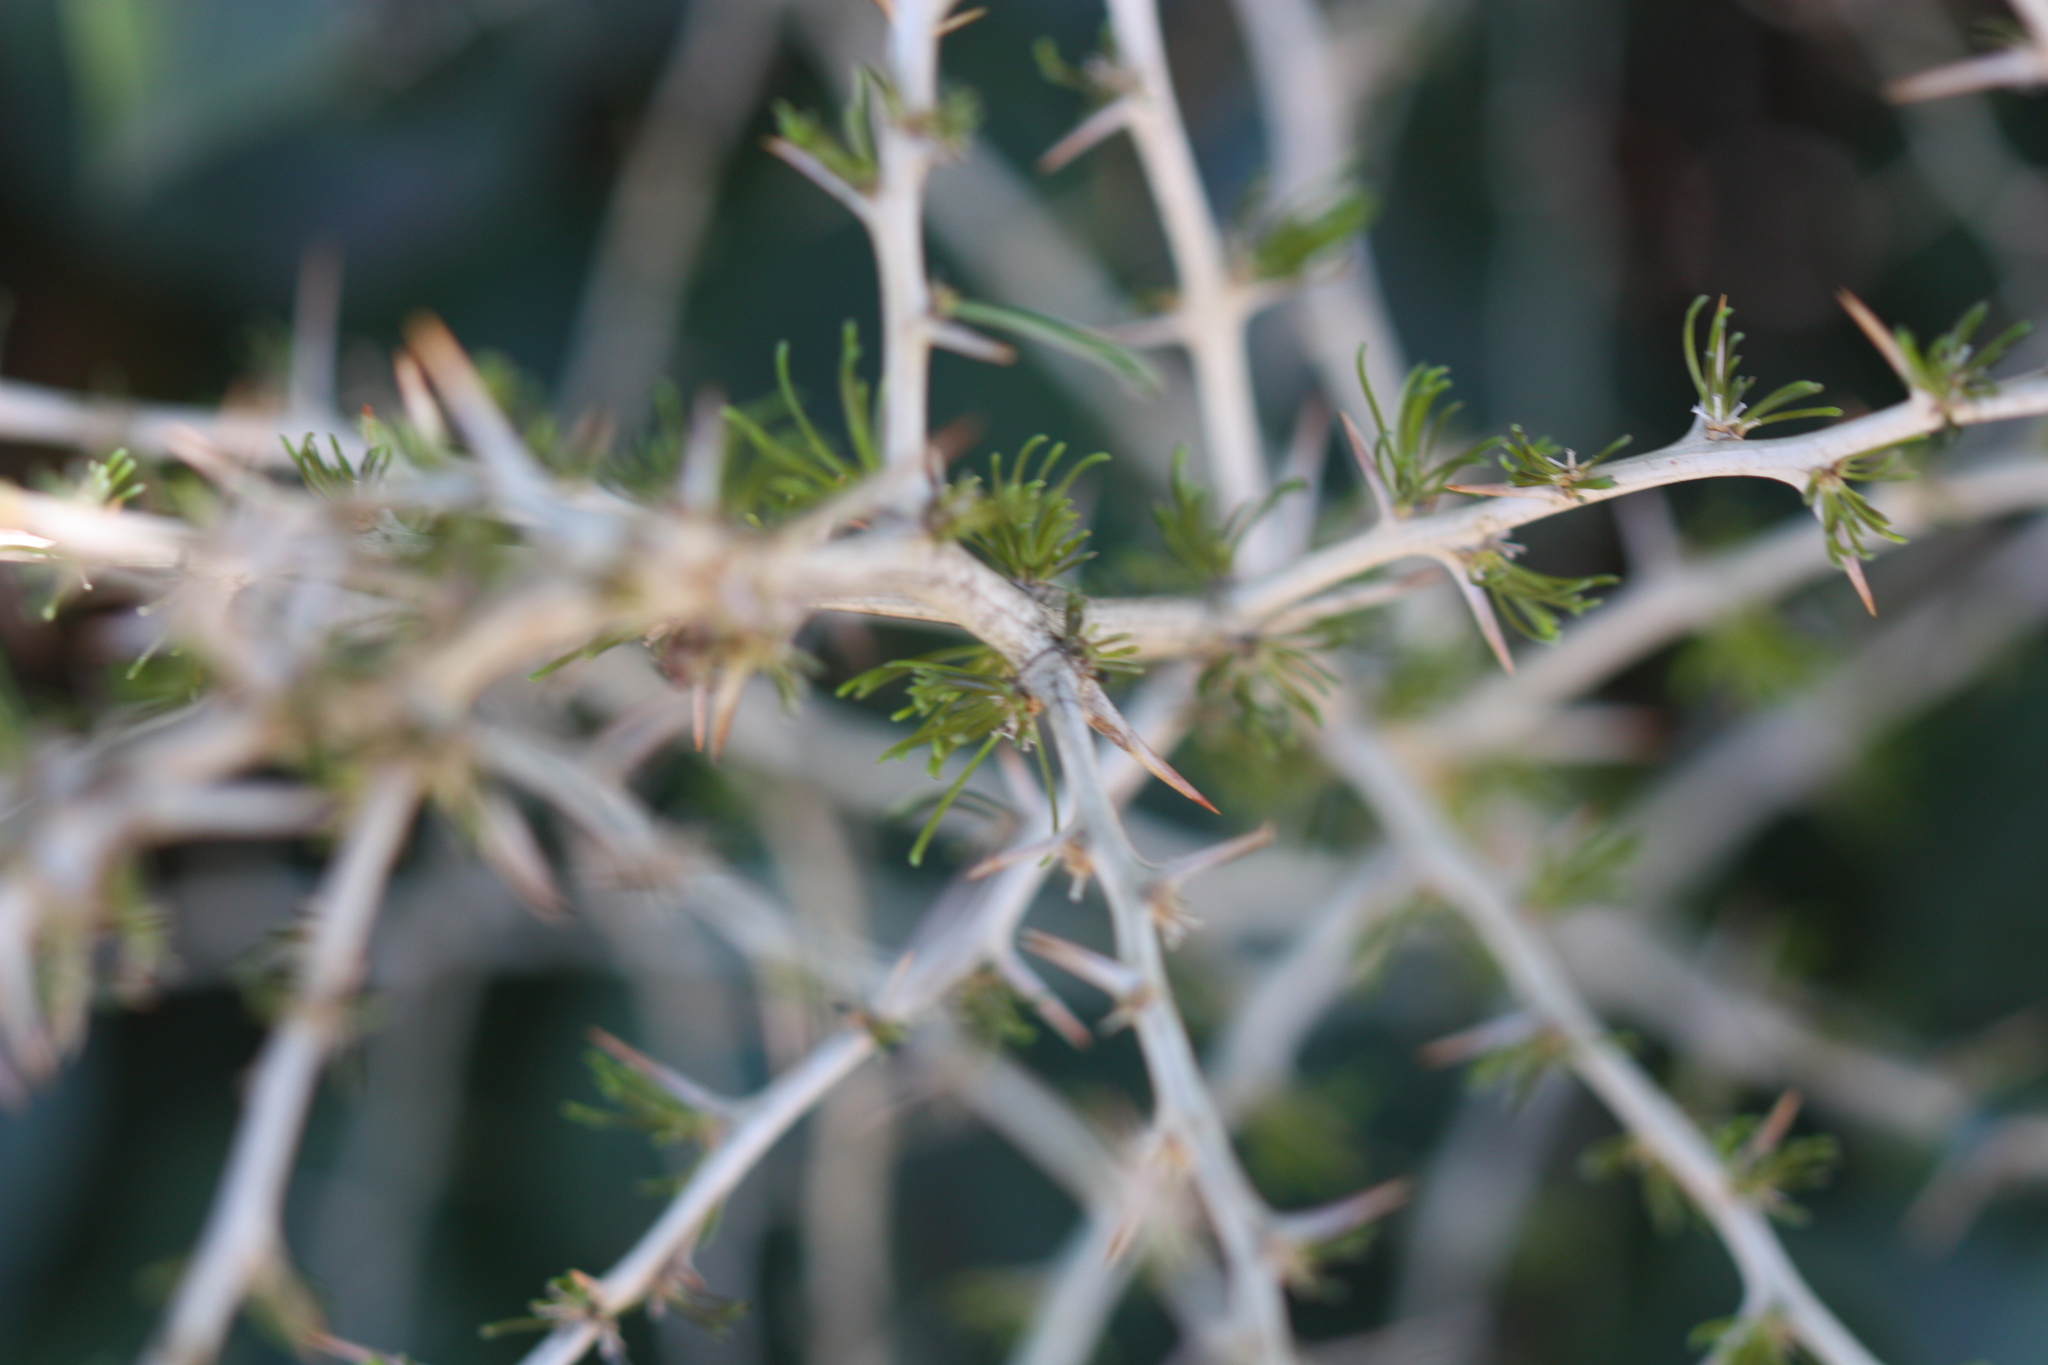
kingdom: Plantae
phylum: Tracheophyta
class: Liliopsida
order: Asparagales
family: Asparagaceae
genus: Asparagus
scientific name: Asparagus acutifolius
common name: Wild asparagus
